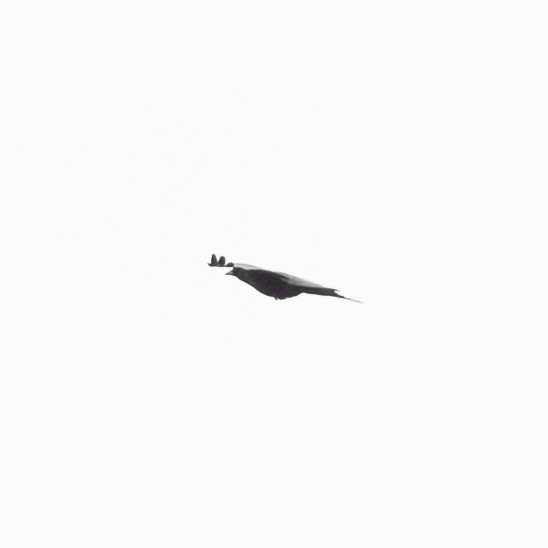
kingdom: Animalia
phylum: Chordata
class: Aves
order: Passeriformes
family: Corvidae
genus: Pyrrhocorax
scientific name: Pyrrhocorax pyrrhocorax
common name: Red-billed chough
